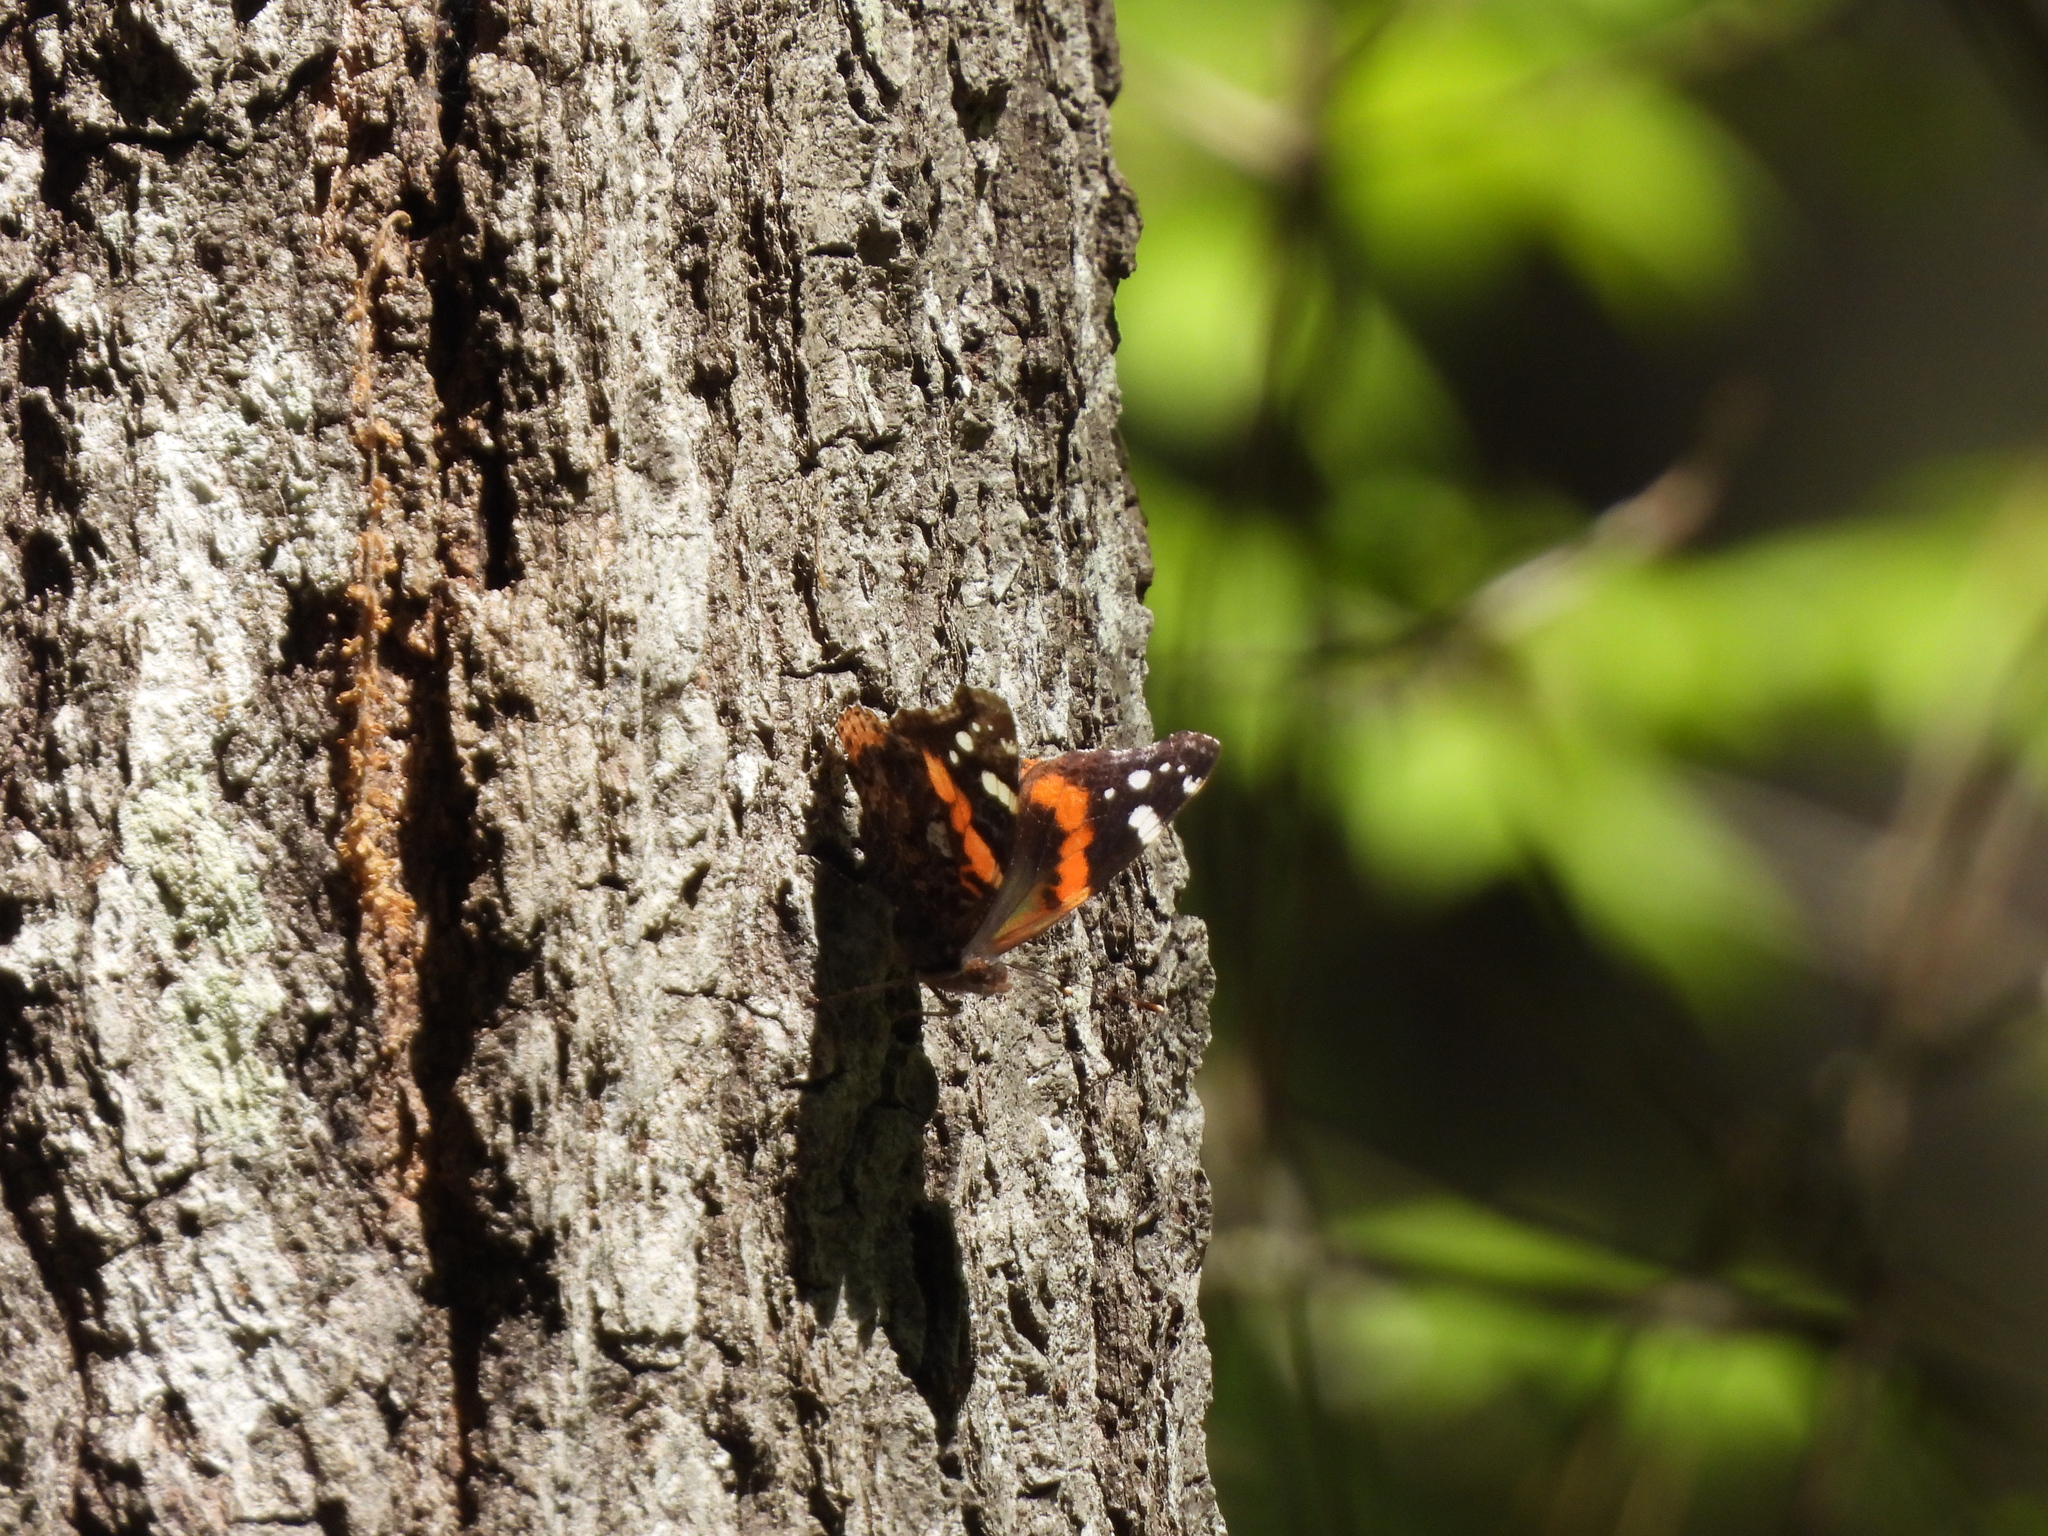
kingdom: Animalia
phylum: Arthropoda
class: Insecta
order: Lepidoptera
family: Nymphalidae
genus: Vanessa
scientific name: Vanessa atalanta
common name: Red admiral
